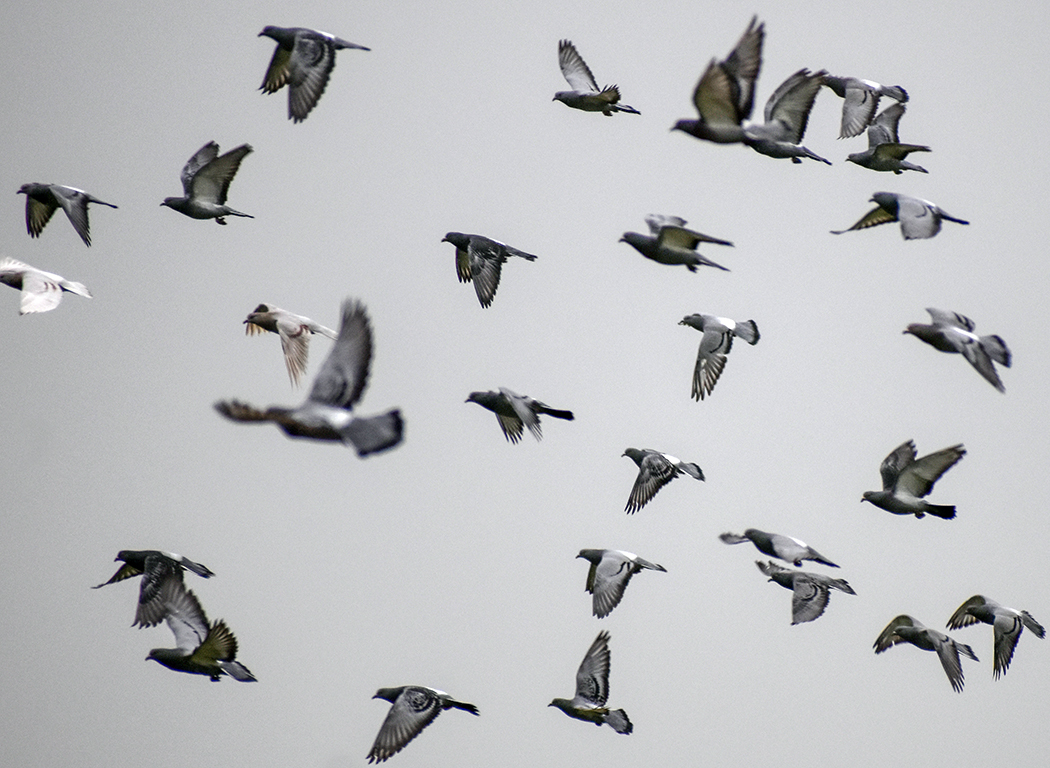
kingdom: Animalia
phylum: Chordata
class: Aves
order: Columbiformes
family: Columbidae
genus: Columba
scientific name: Columba livia
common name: Rock pigeon
